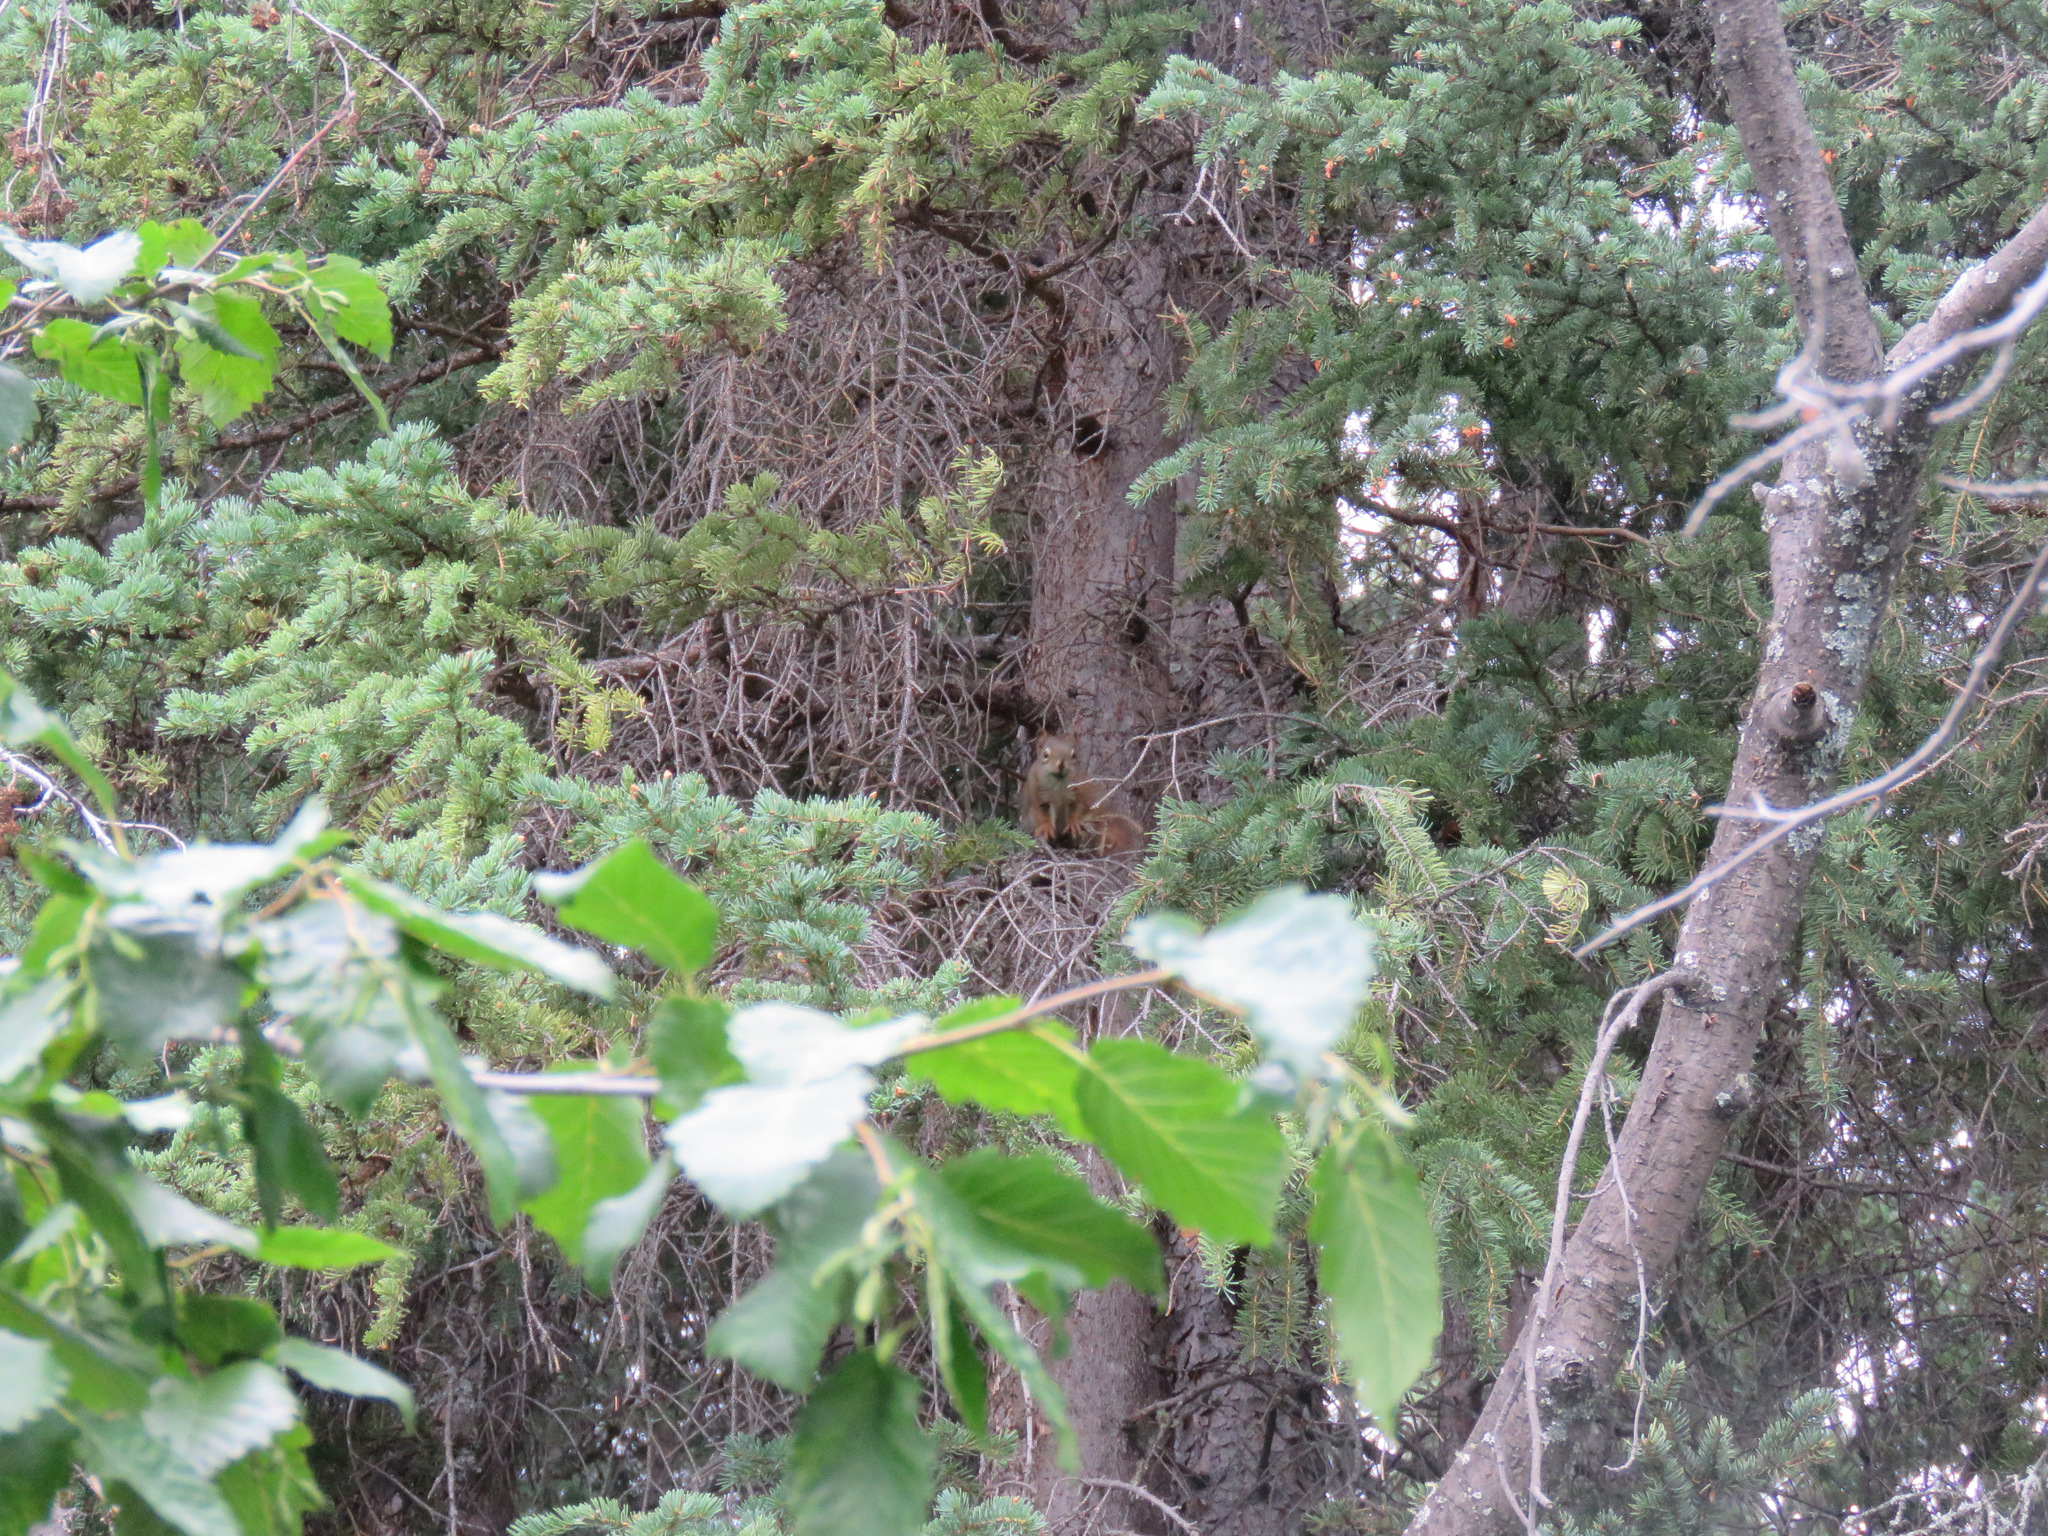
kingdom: Animalia
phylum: Chordata
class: Mammalia
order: Rodentia
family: Sciuridae
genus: Tamiasciurus
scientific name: Tamiasciurus hudsonicus
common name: Red squirrel
